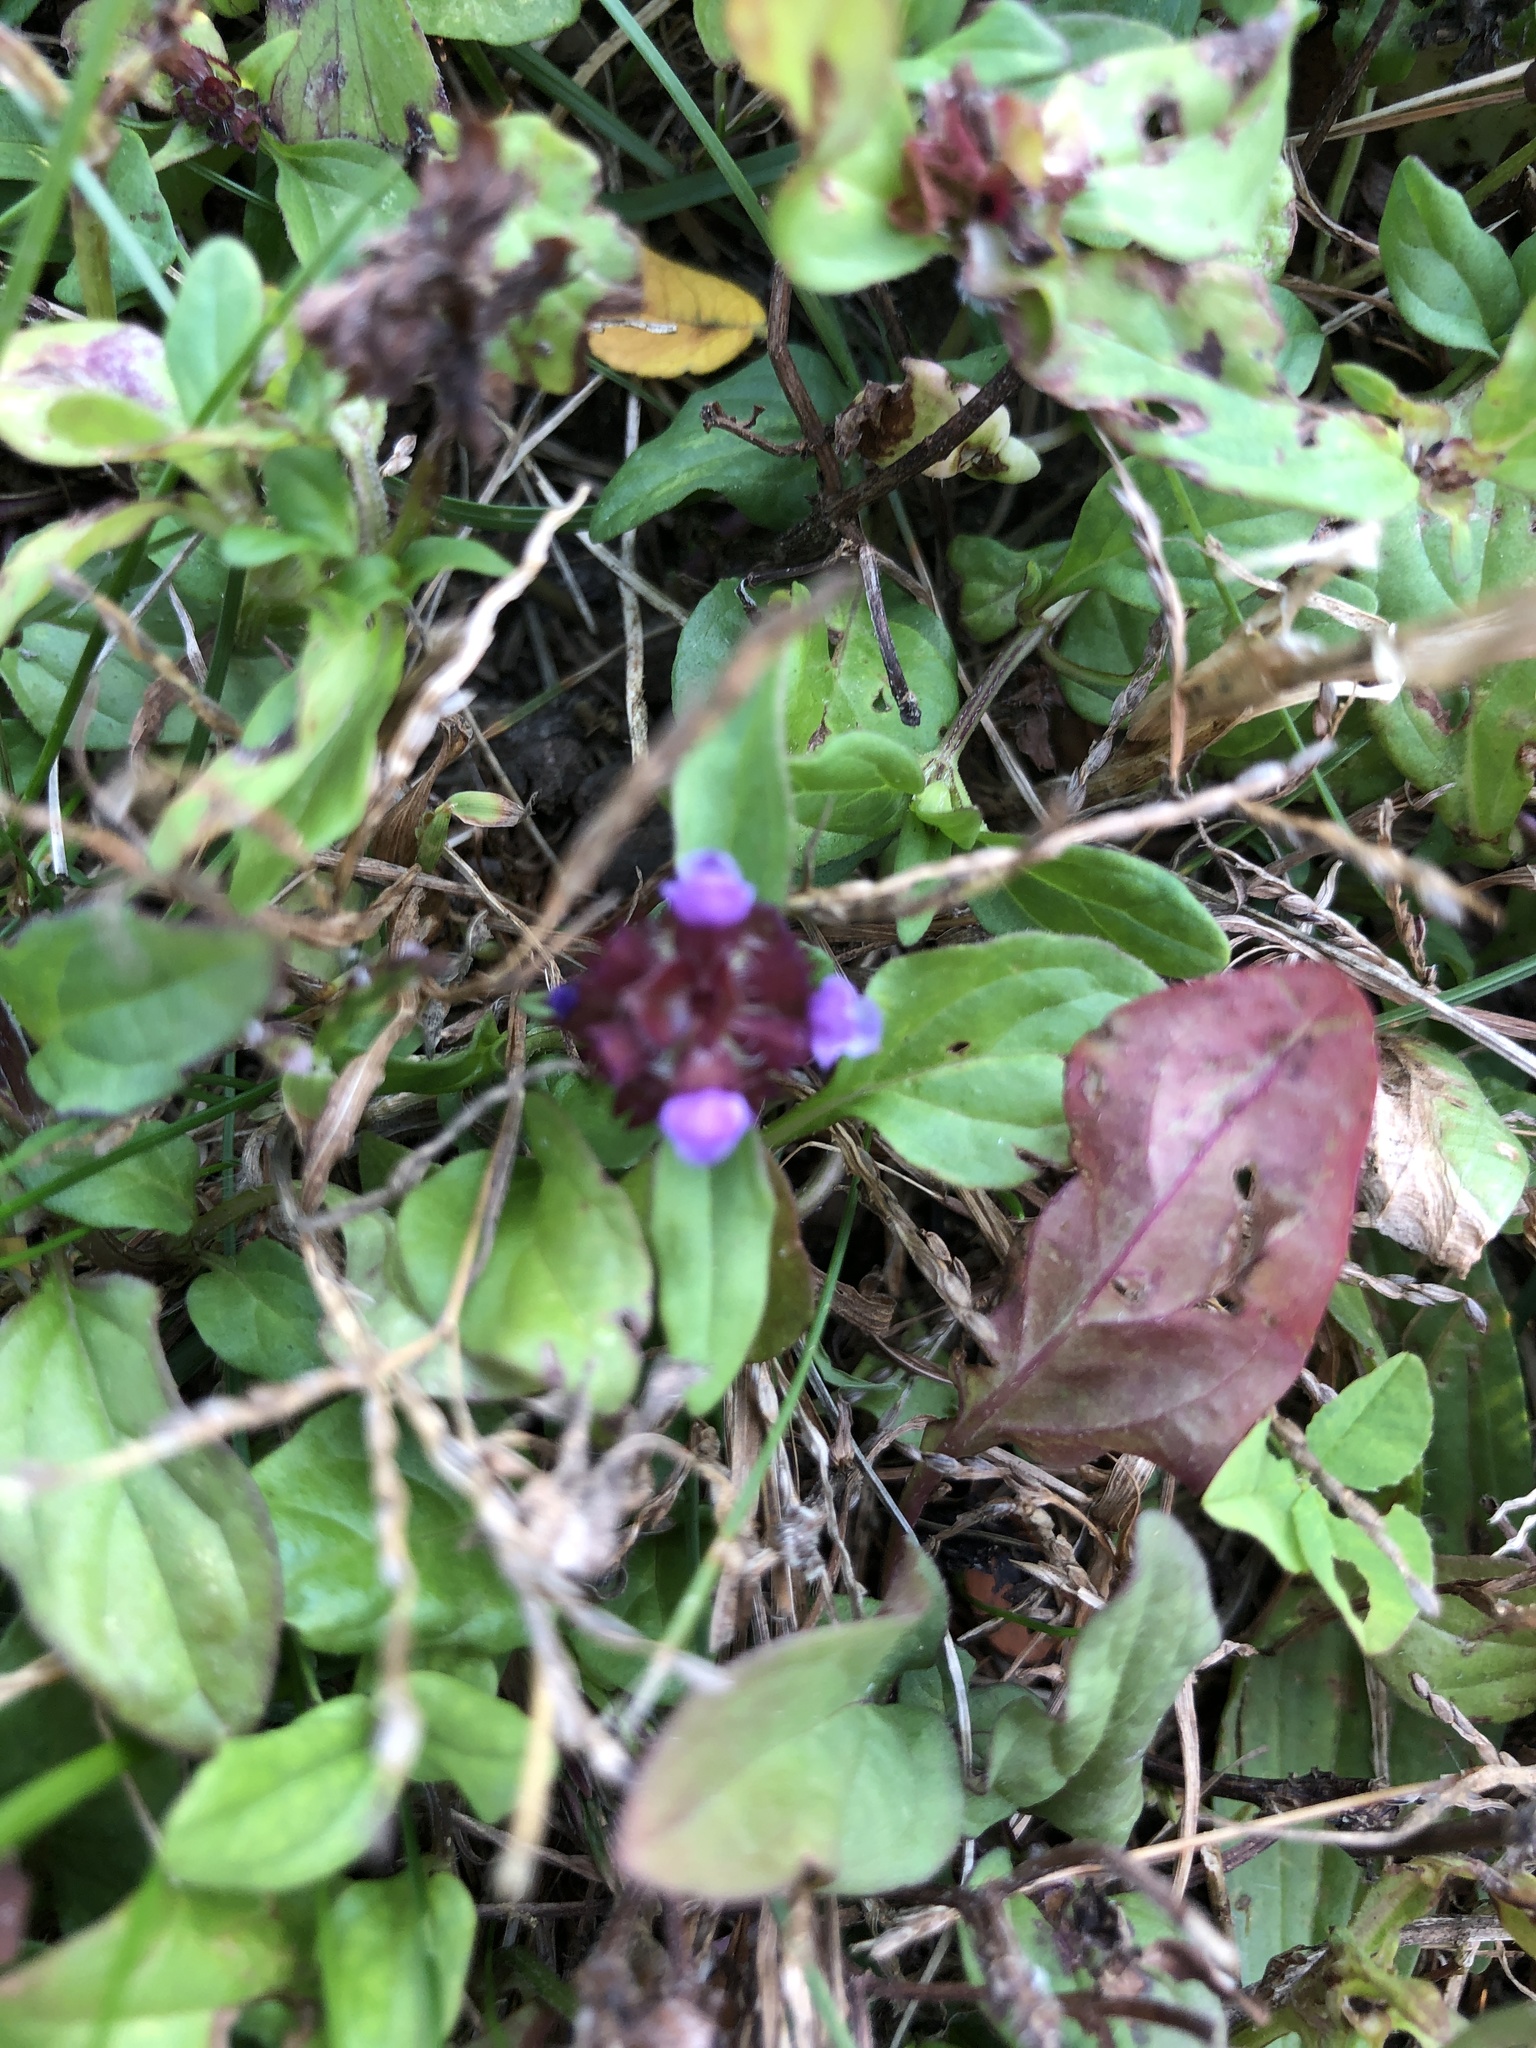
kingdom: Plantae
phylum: Tracheophyta
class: Magnoliopsida
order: Lamiales
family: Lamiaceae
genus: Prunella
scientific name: Prunella vulgaris
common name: Heal-all
